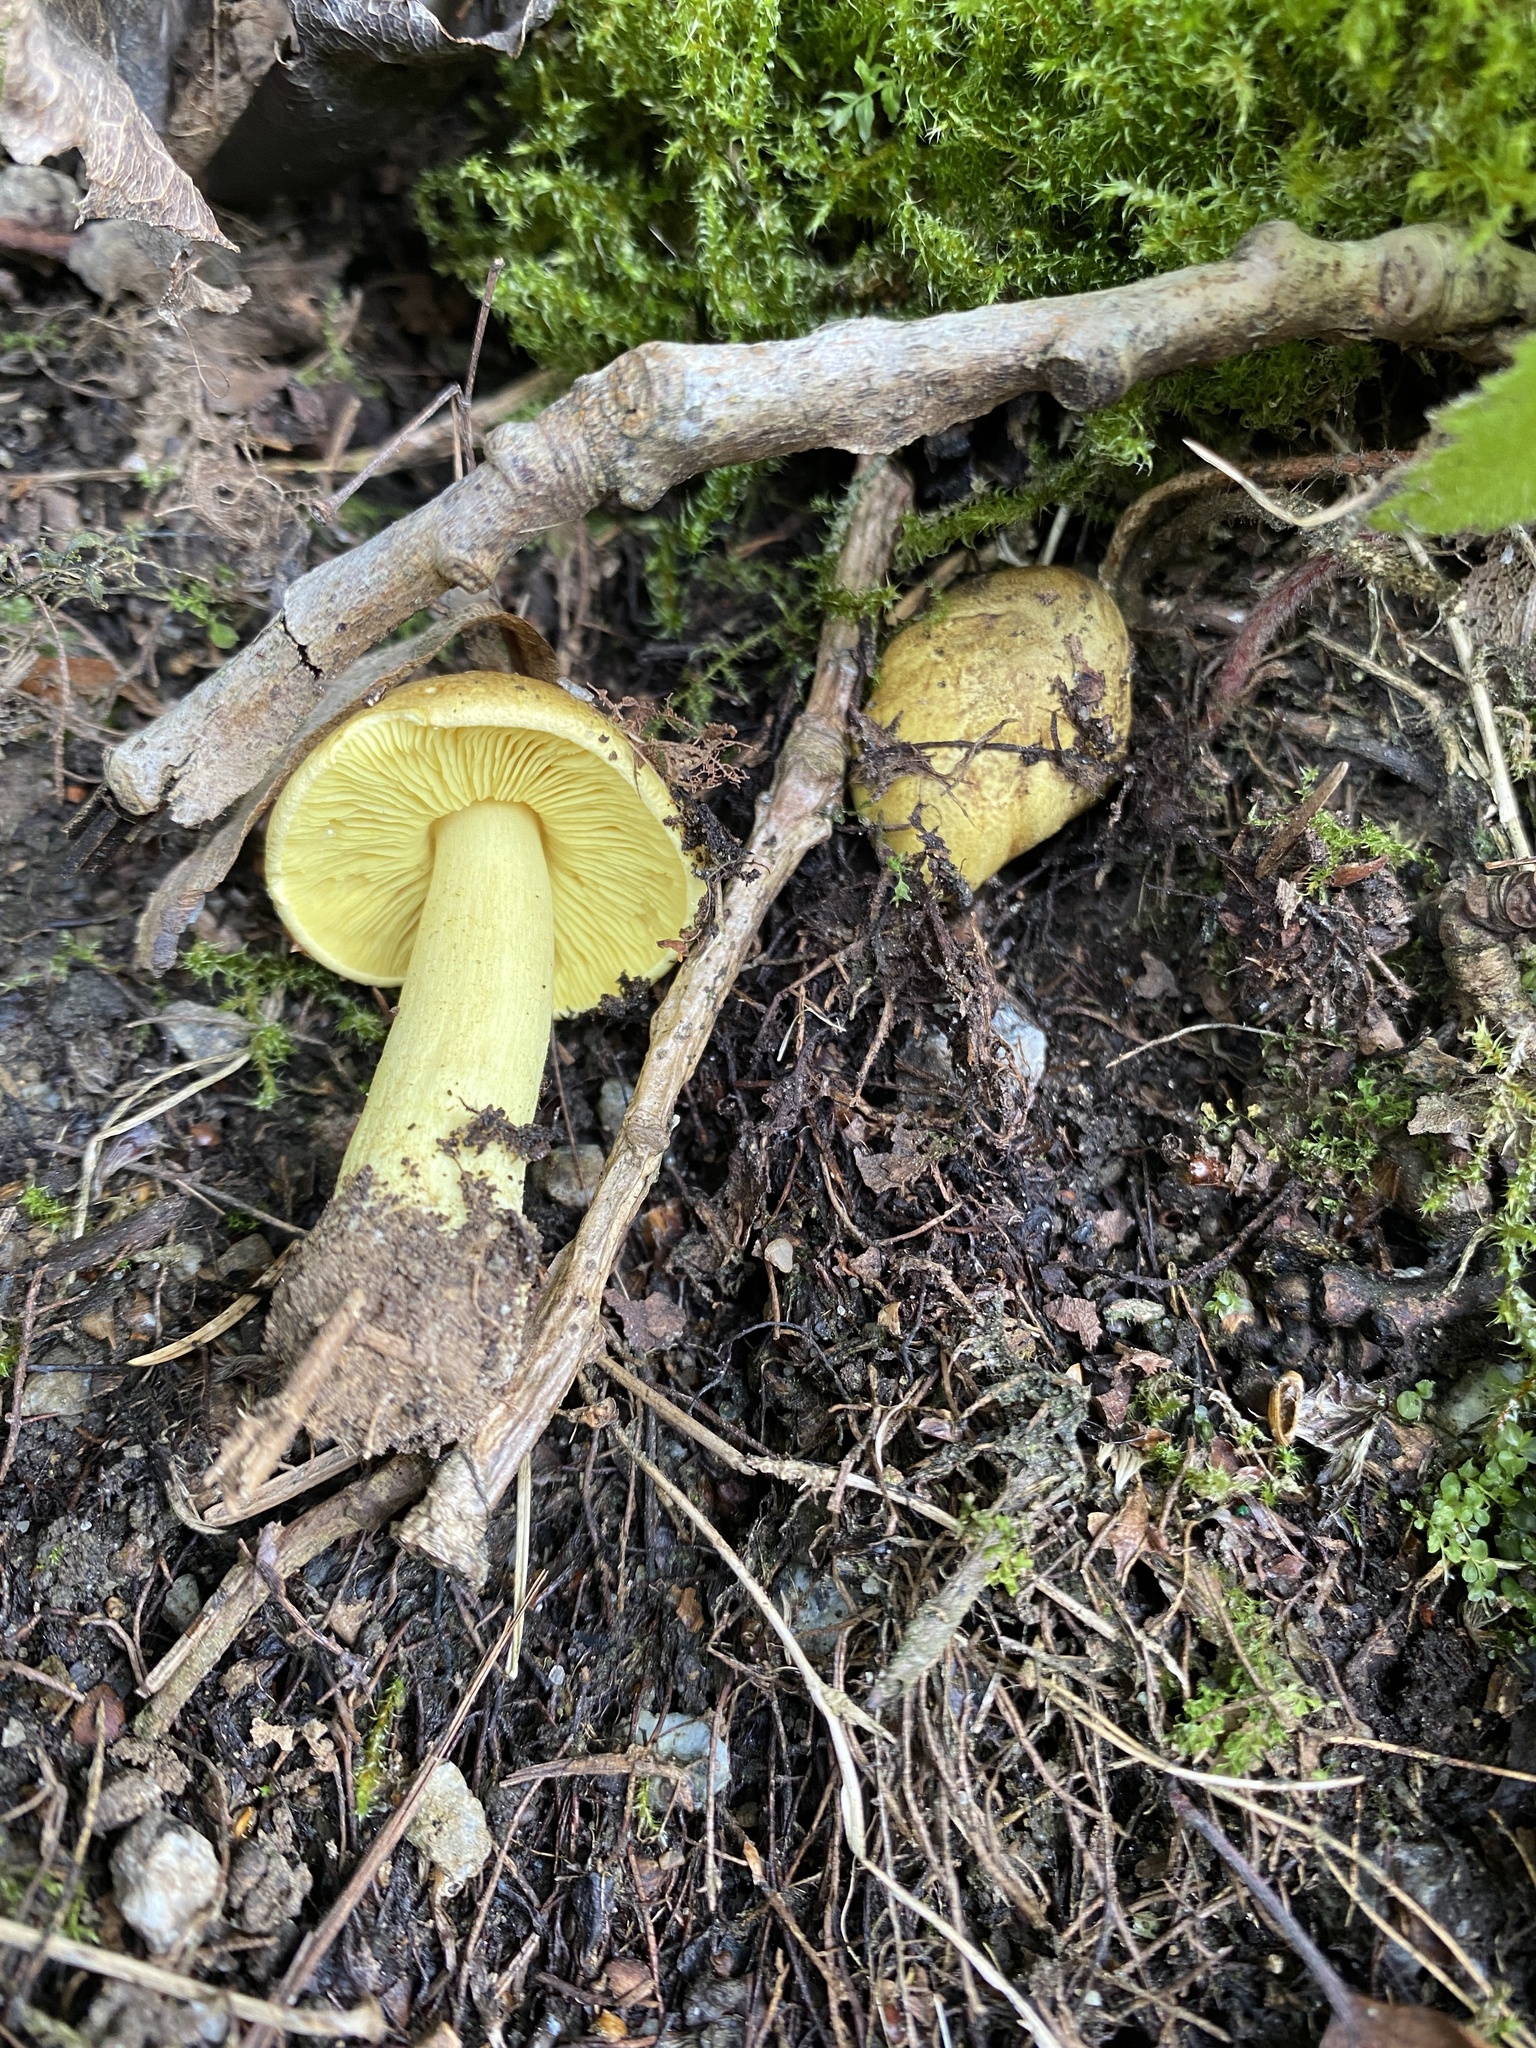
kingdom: Fungi
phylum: Basidiomycota
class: Agaricomycetes
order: Agaricales
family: Tricholomataceae
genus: Tricholoma
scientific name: Tricholoma frondosae
